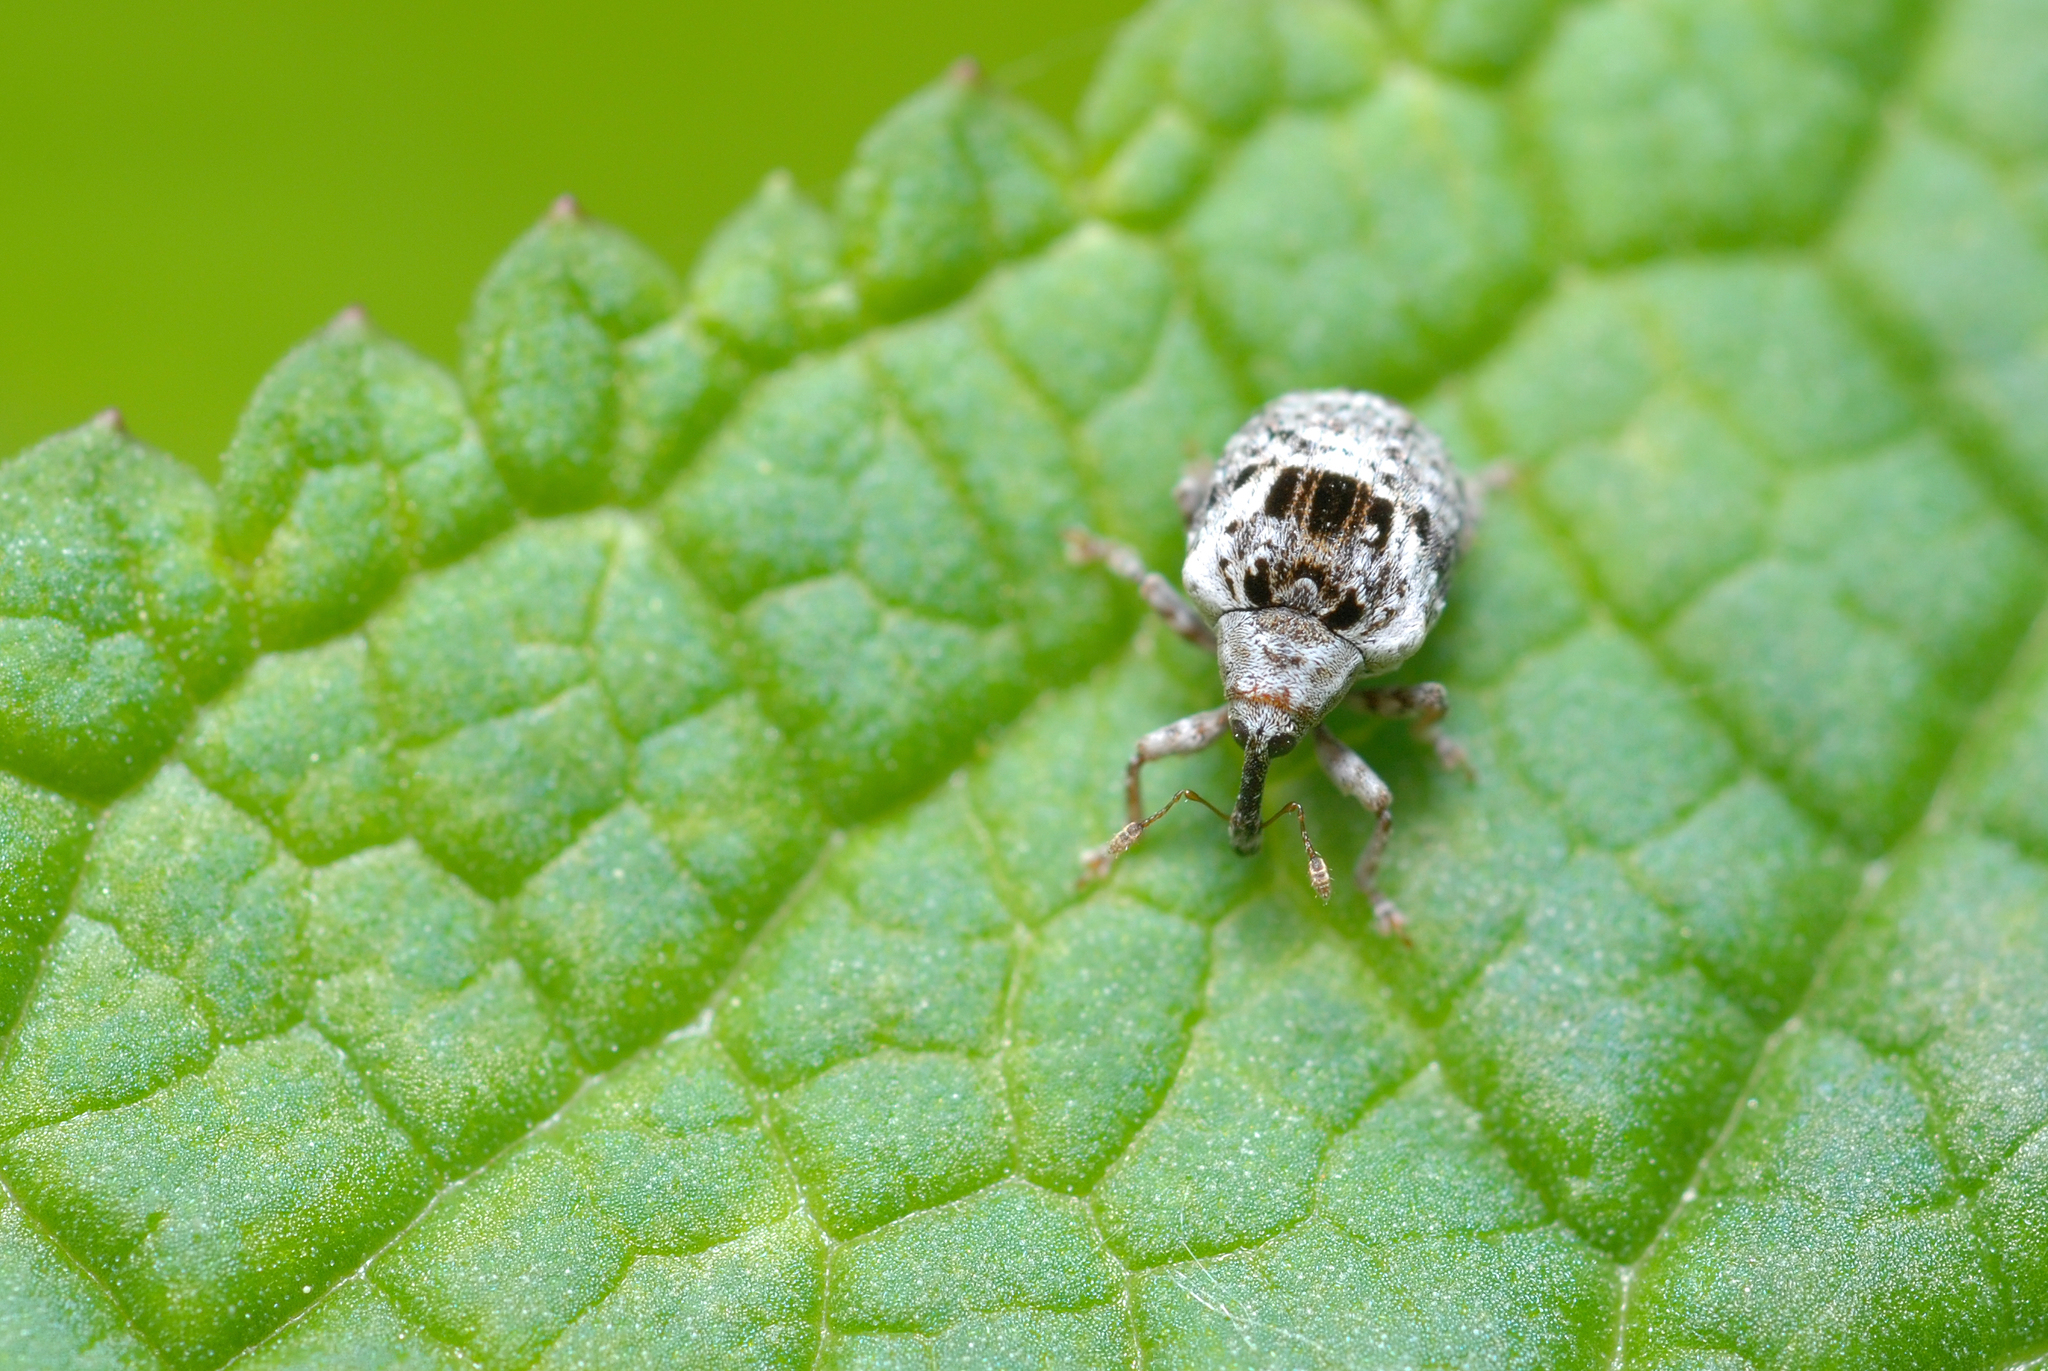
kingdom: Animalia
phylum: Arthropoda
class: Insecta
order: Coleoptera
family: Curculionidae
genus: Cionus
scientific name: Cionus alauda
